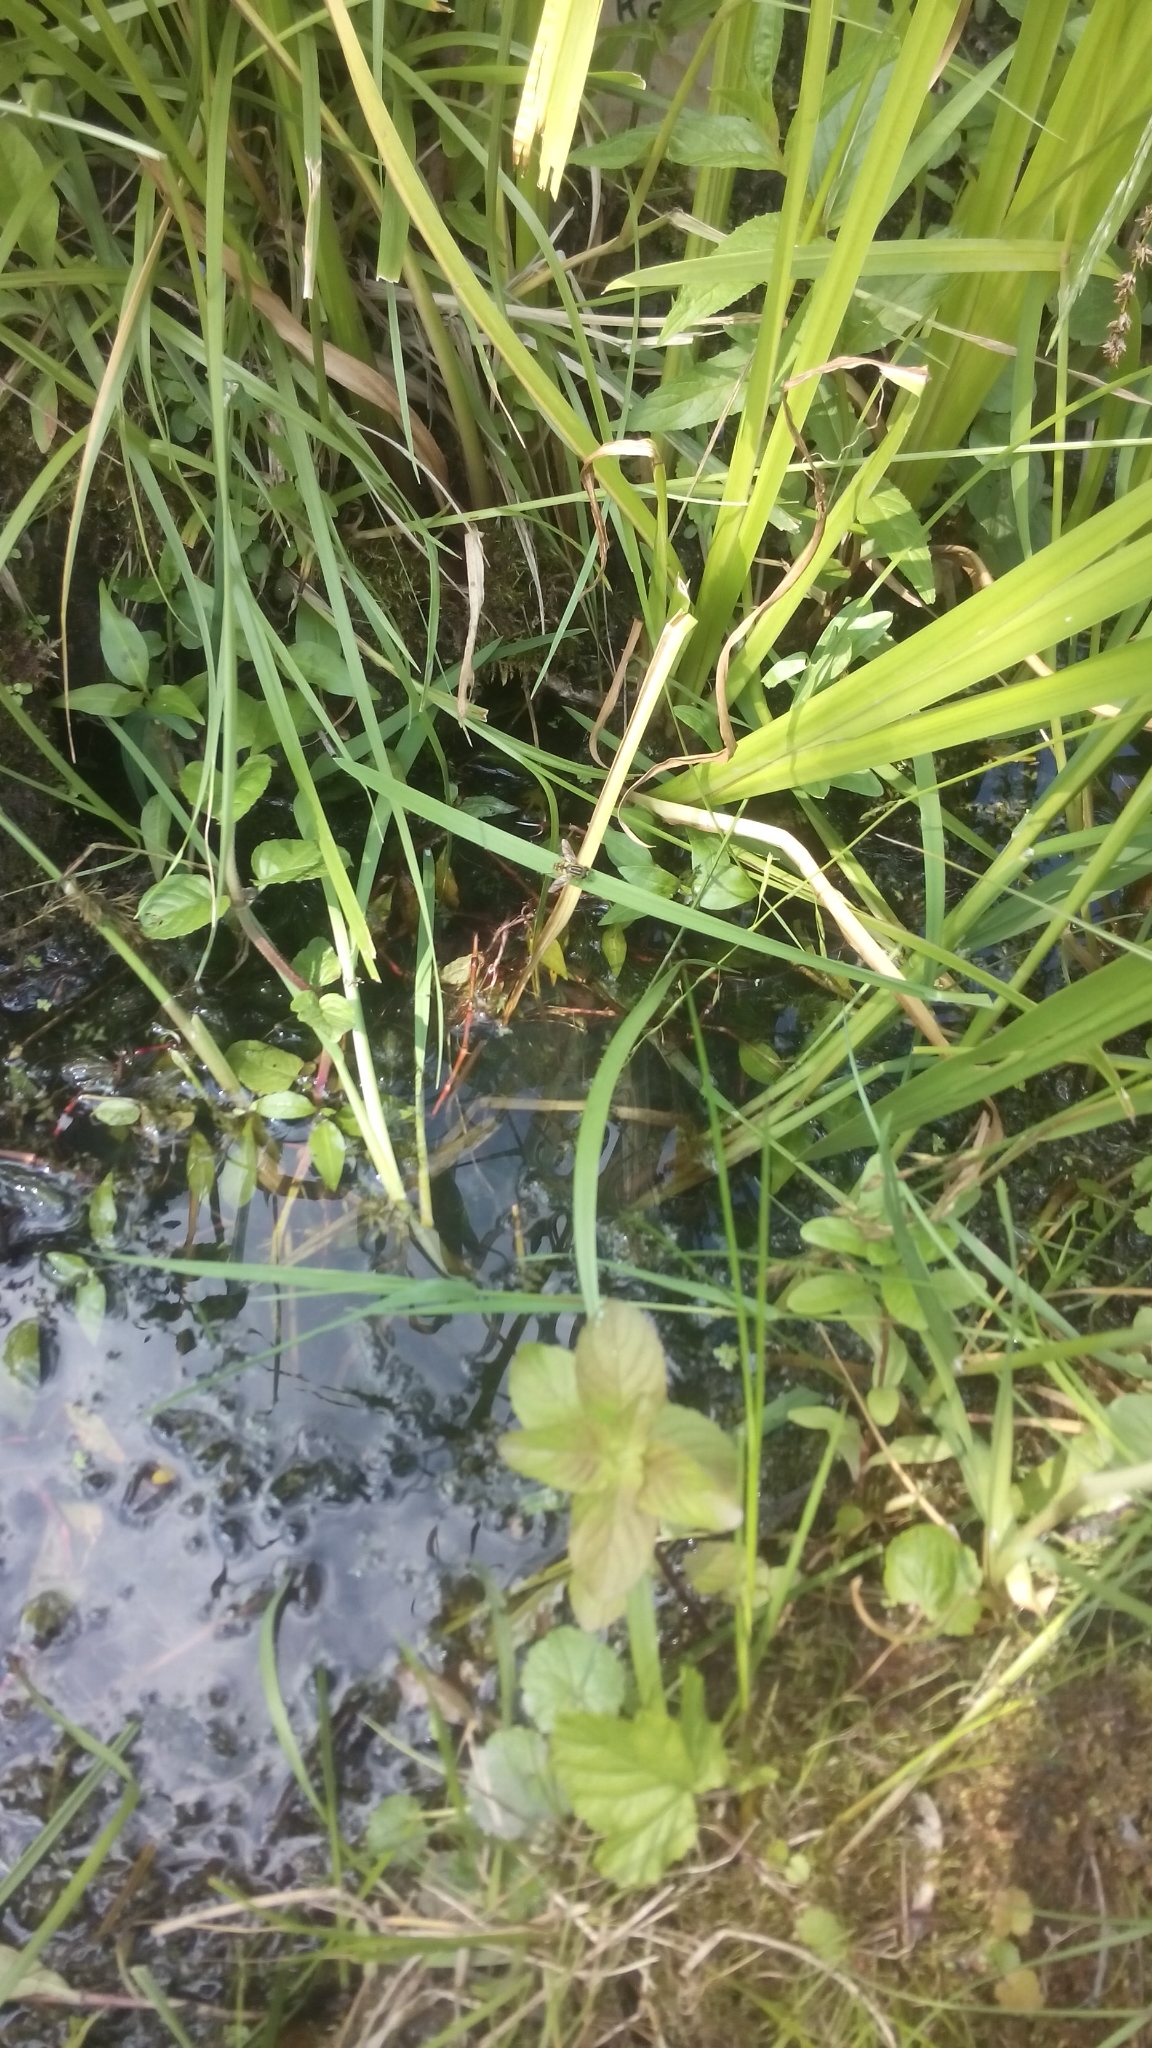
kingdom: Animalia
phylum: Arthropoda
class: Insecta
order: Diptera
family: Syrphidae
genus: Helophilus
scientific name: Helophilus pendulus
